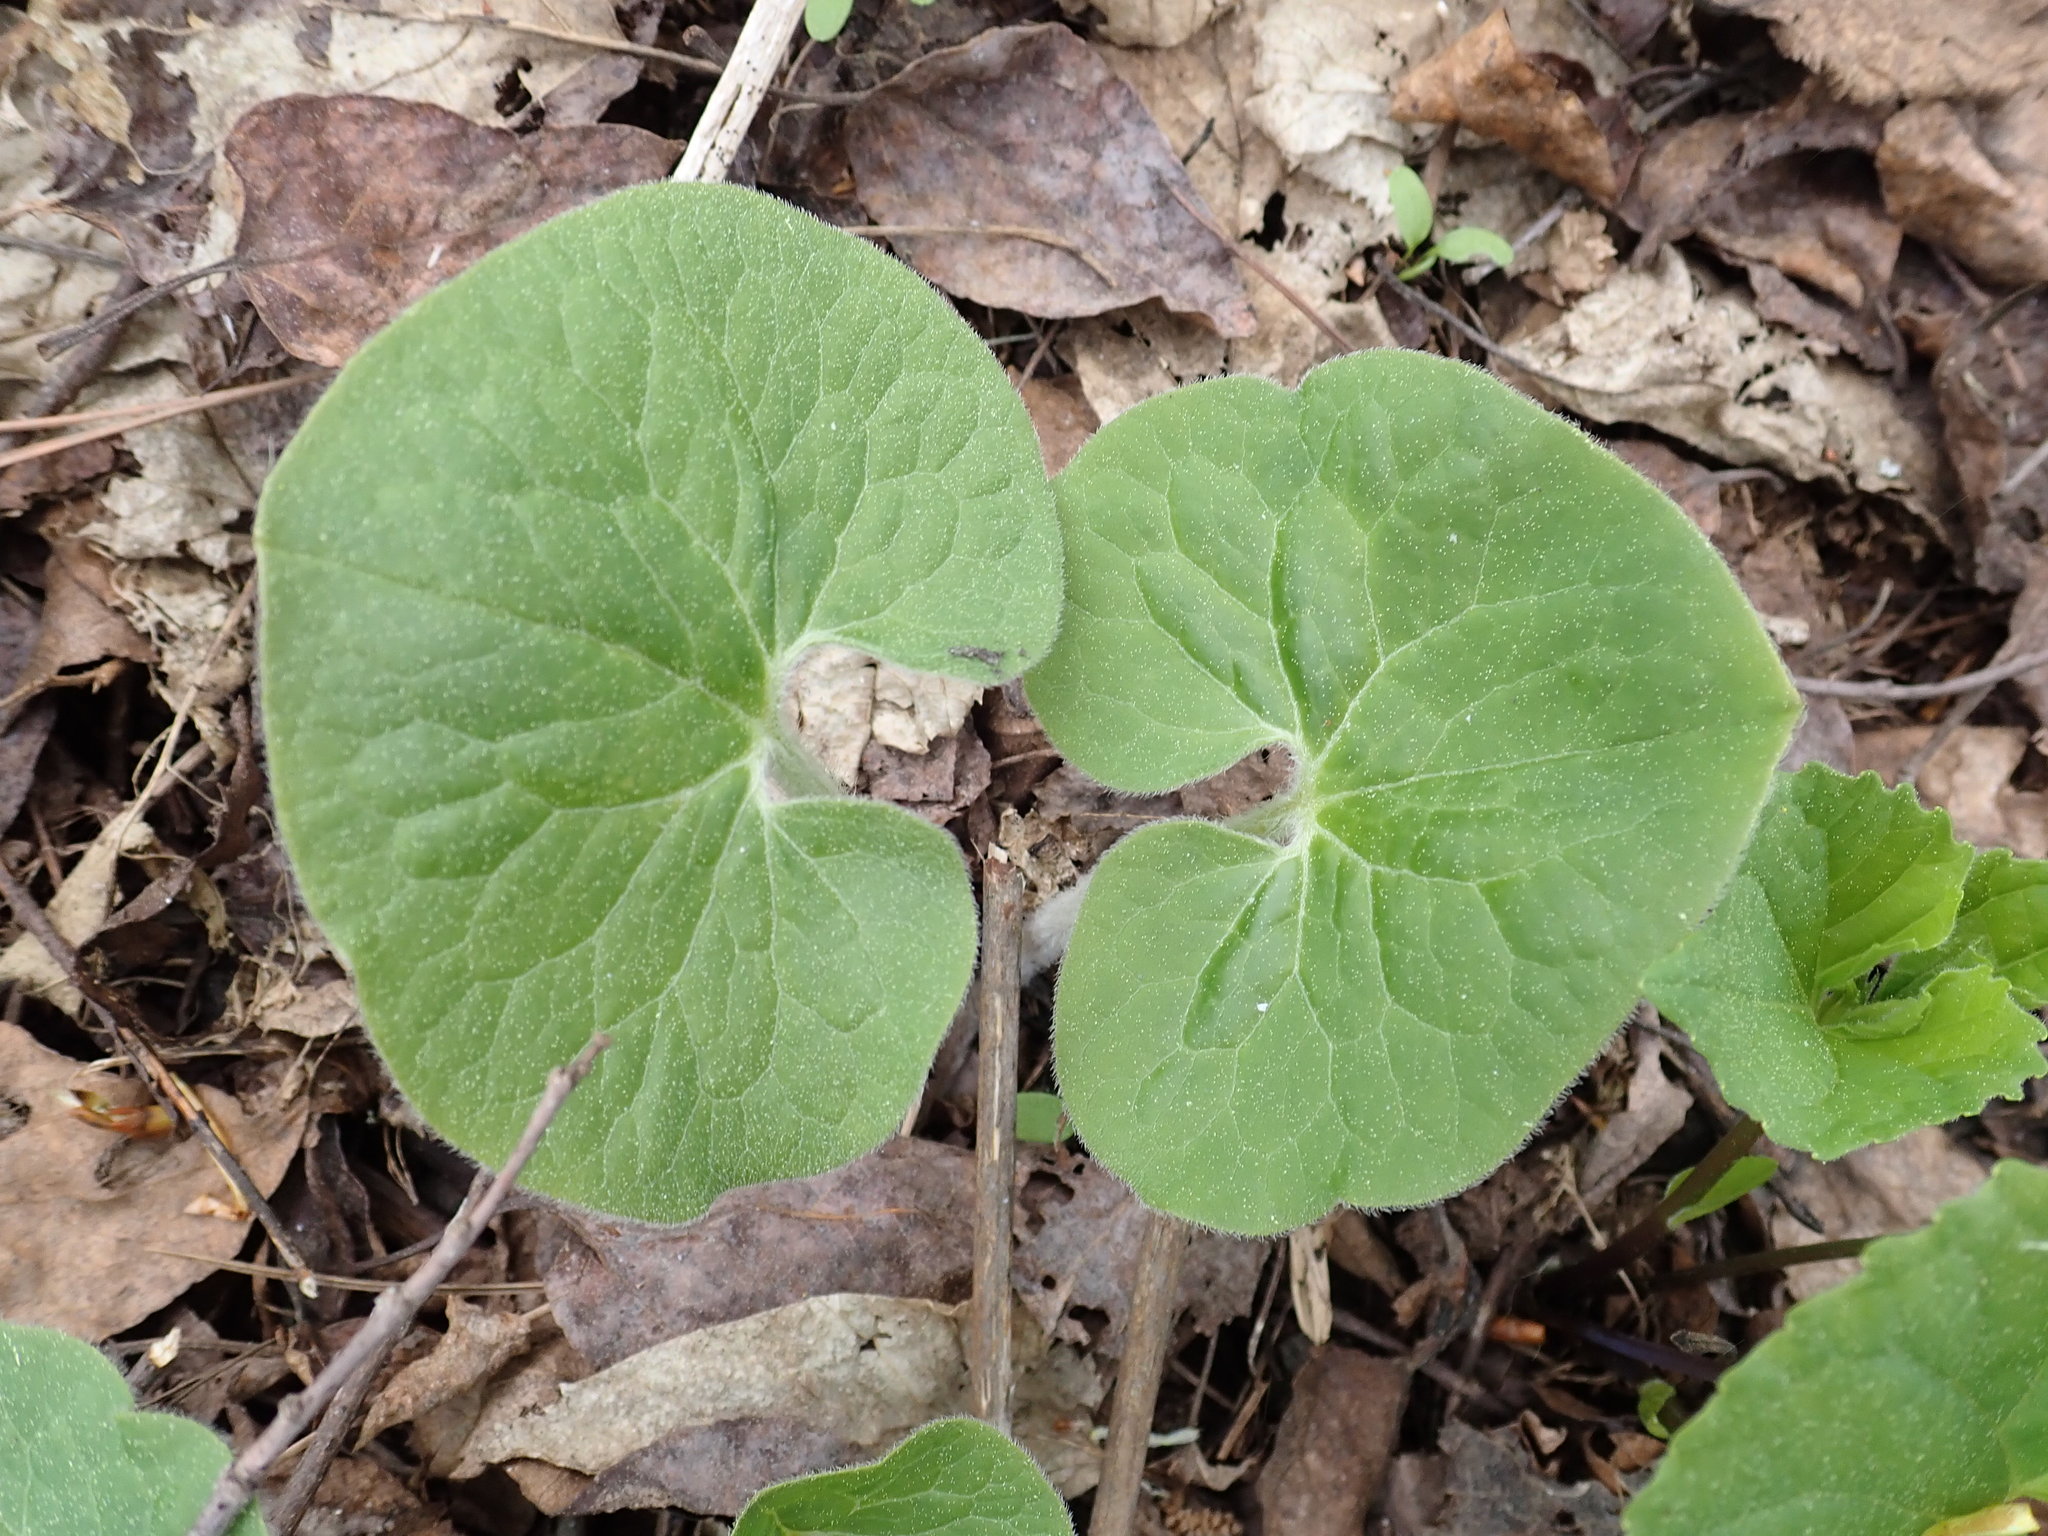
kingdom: Plantae
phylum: Tracheophyta
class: Magnoliopsida
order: Piperales
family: Aristolochiaceae
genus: Asarum
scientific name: Asarum canadense
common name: Wild ginger
